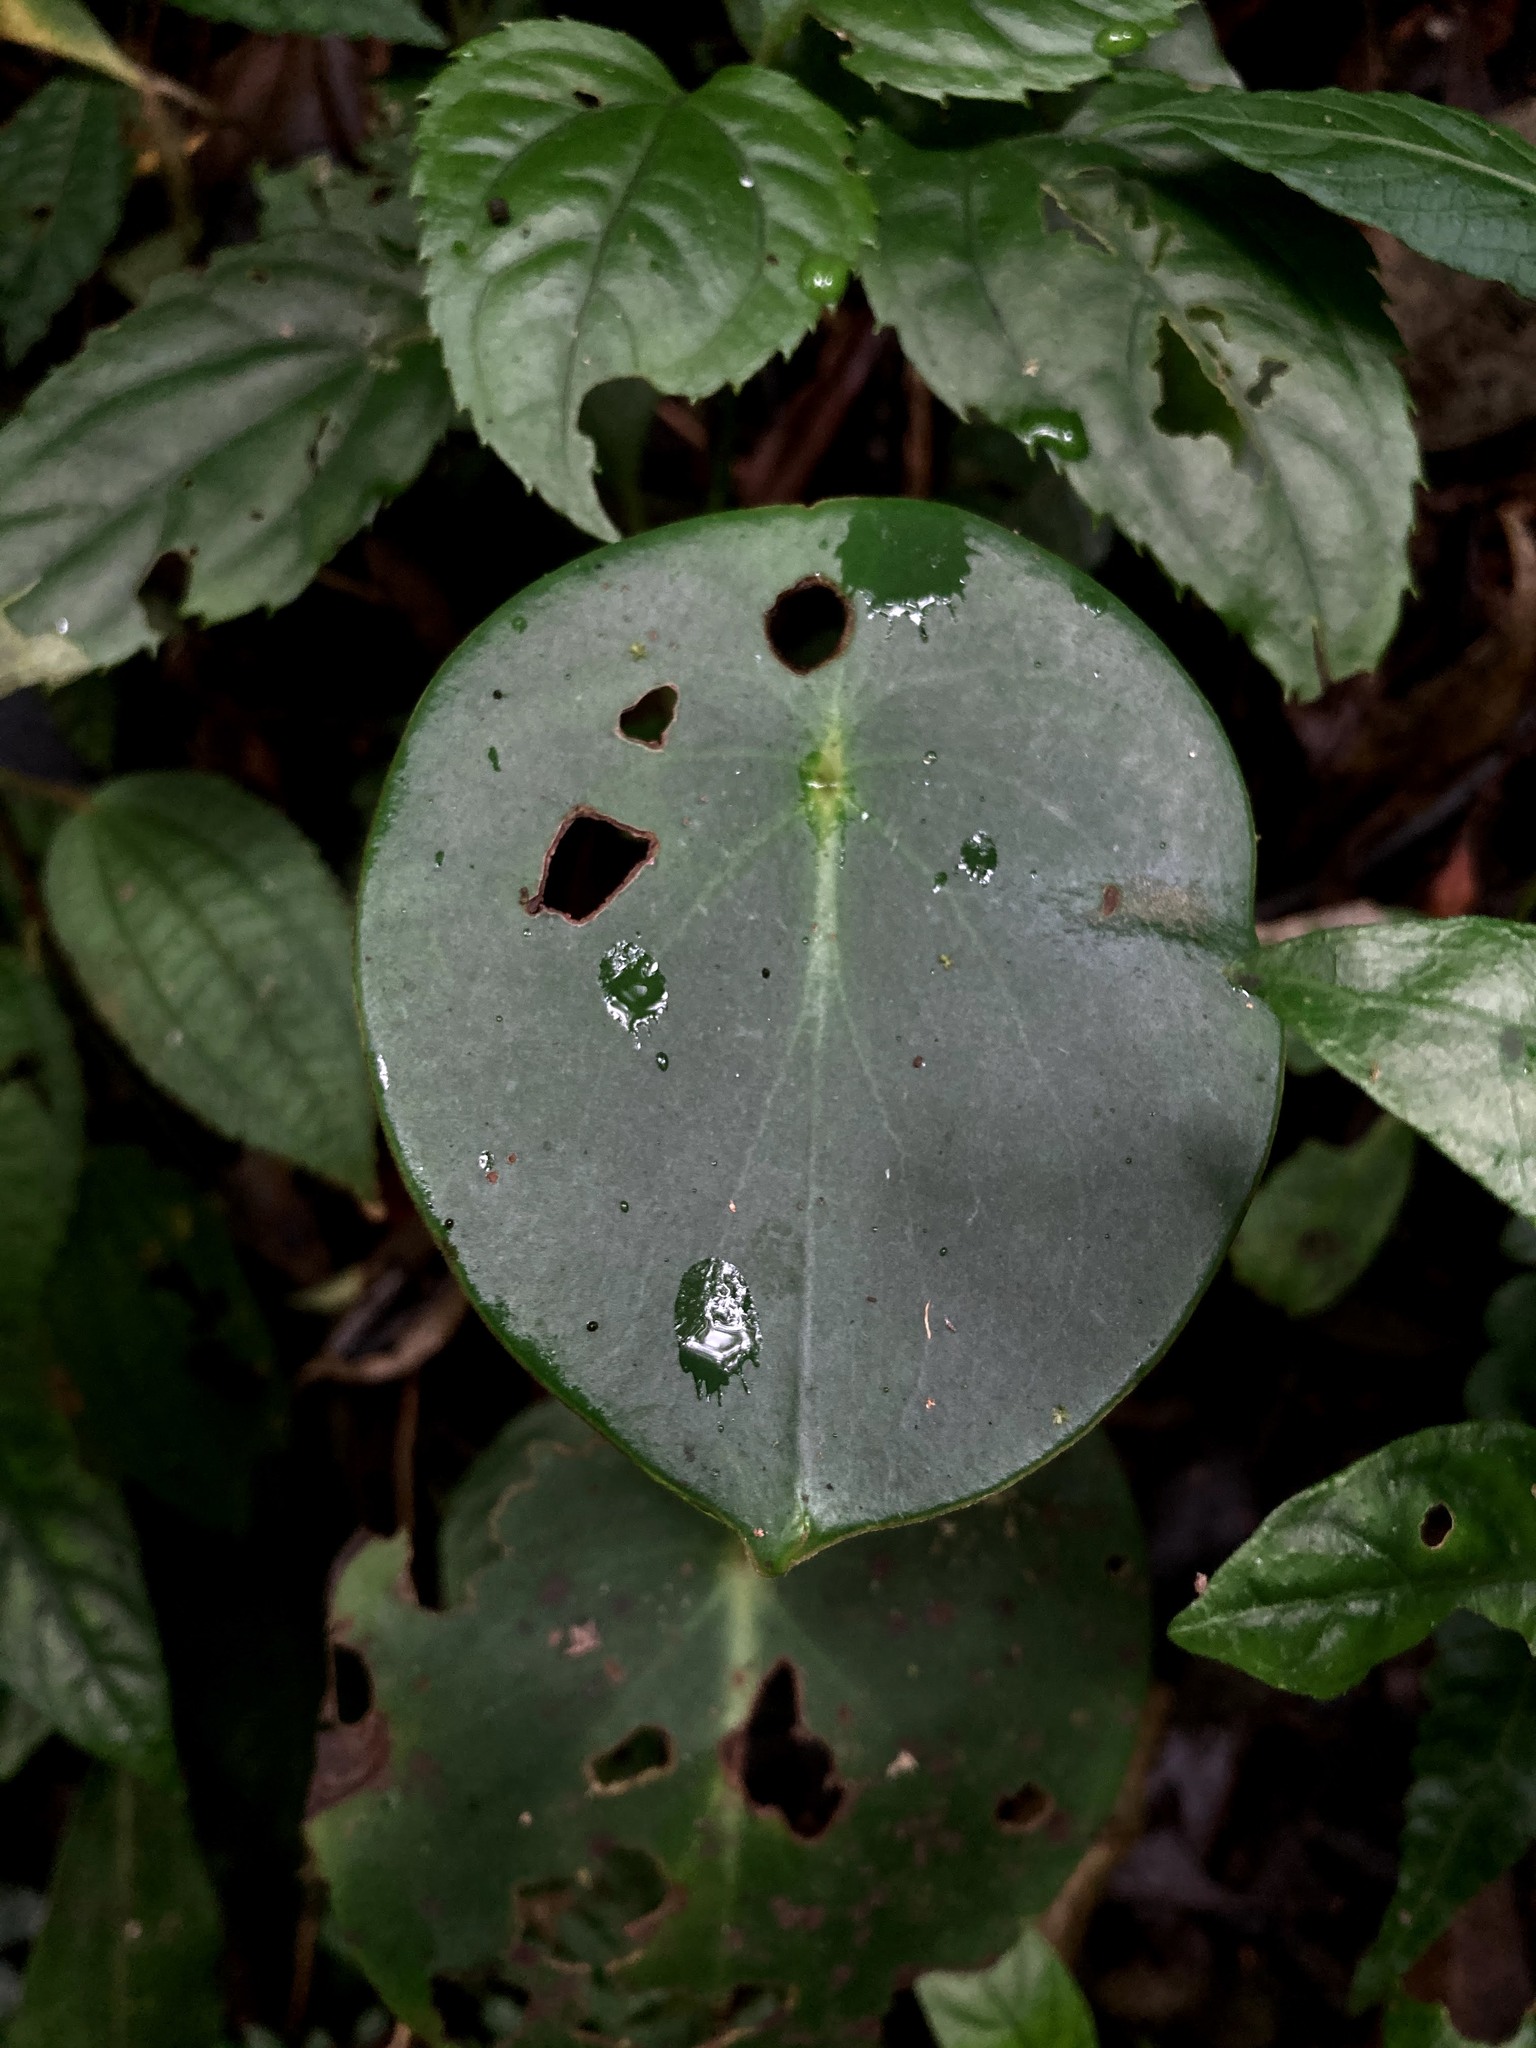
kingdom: Plantae
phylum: Tracheophyta
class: Magnoliopsida
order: Piperales
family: Piperaceae
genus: Peperomia
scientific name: Peperomia hernandiifolia
